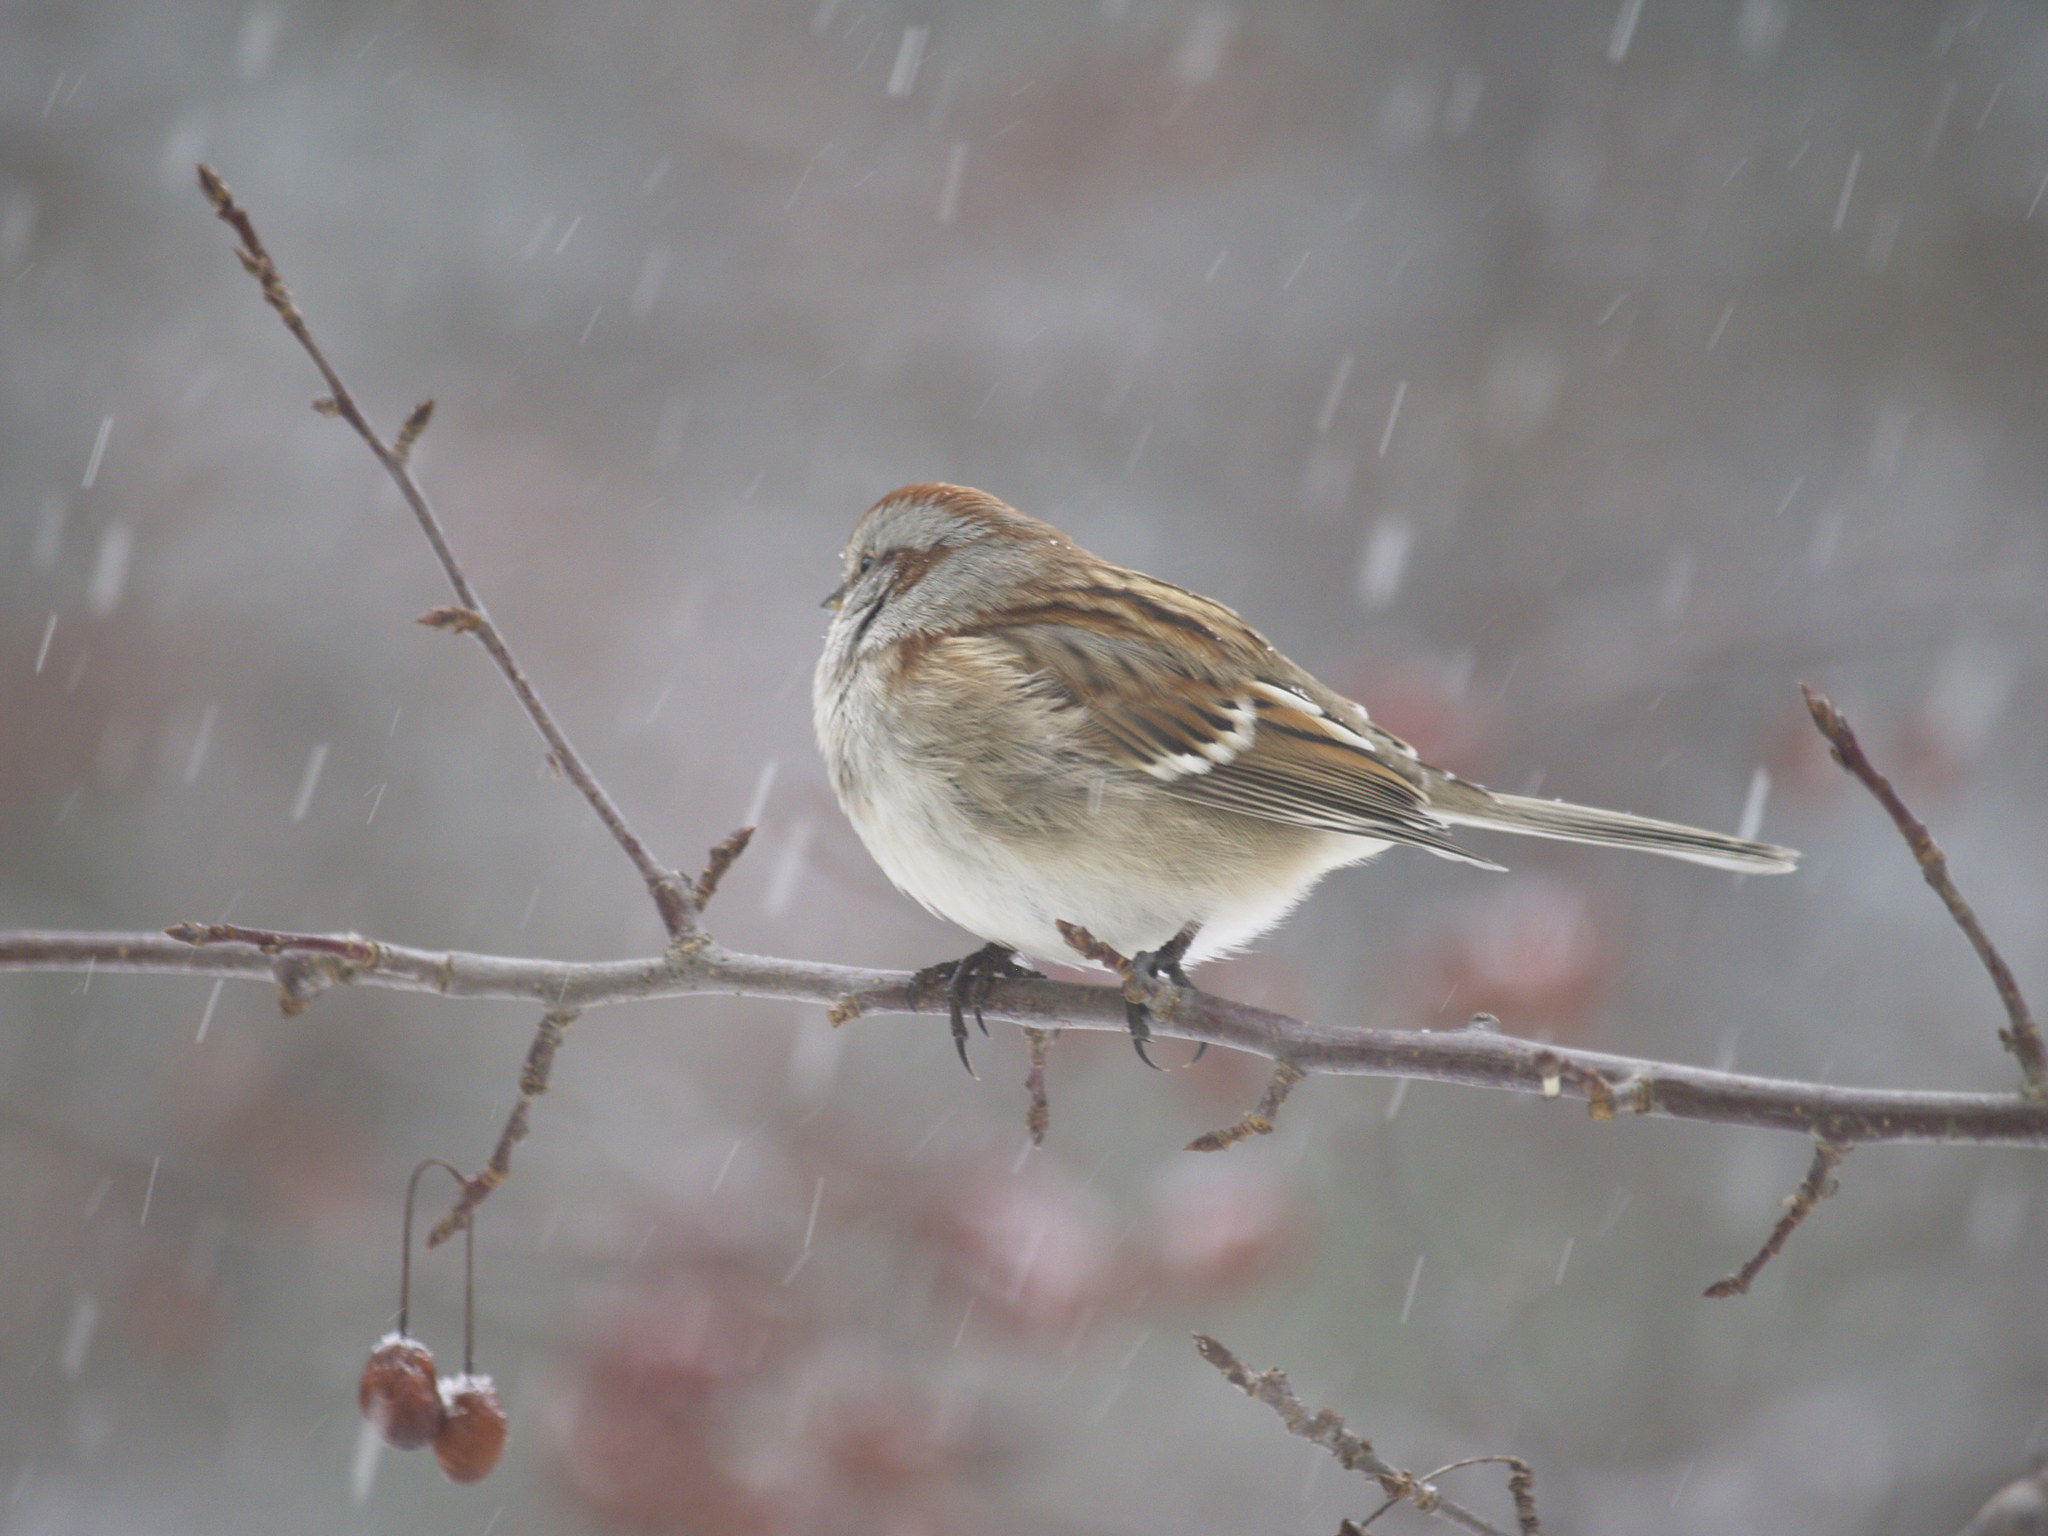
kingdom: Animalia
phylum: Chordata
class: Aves
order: Passeriformes
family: Passerellidae
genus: Spizelloides
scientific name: Spizelloides arborea
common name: American tree sparrow
